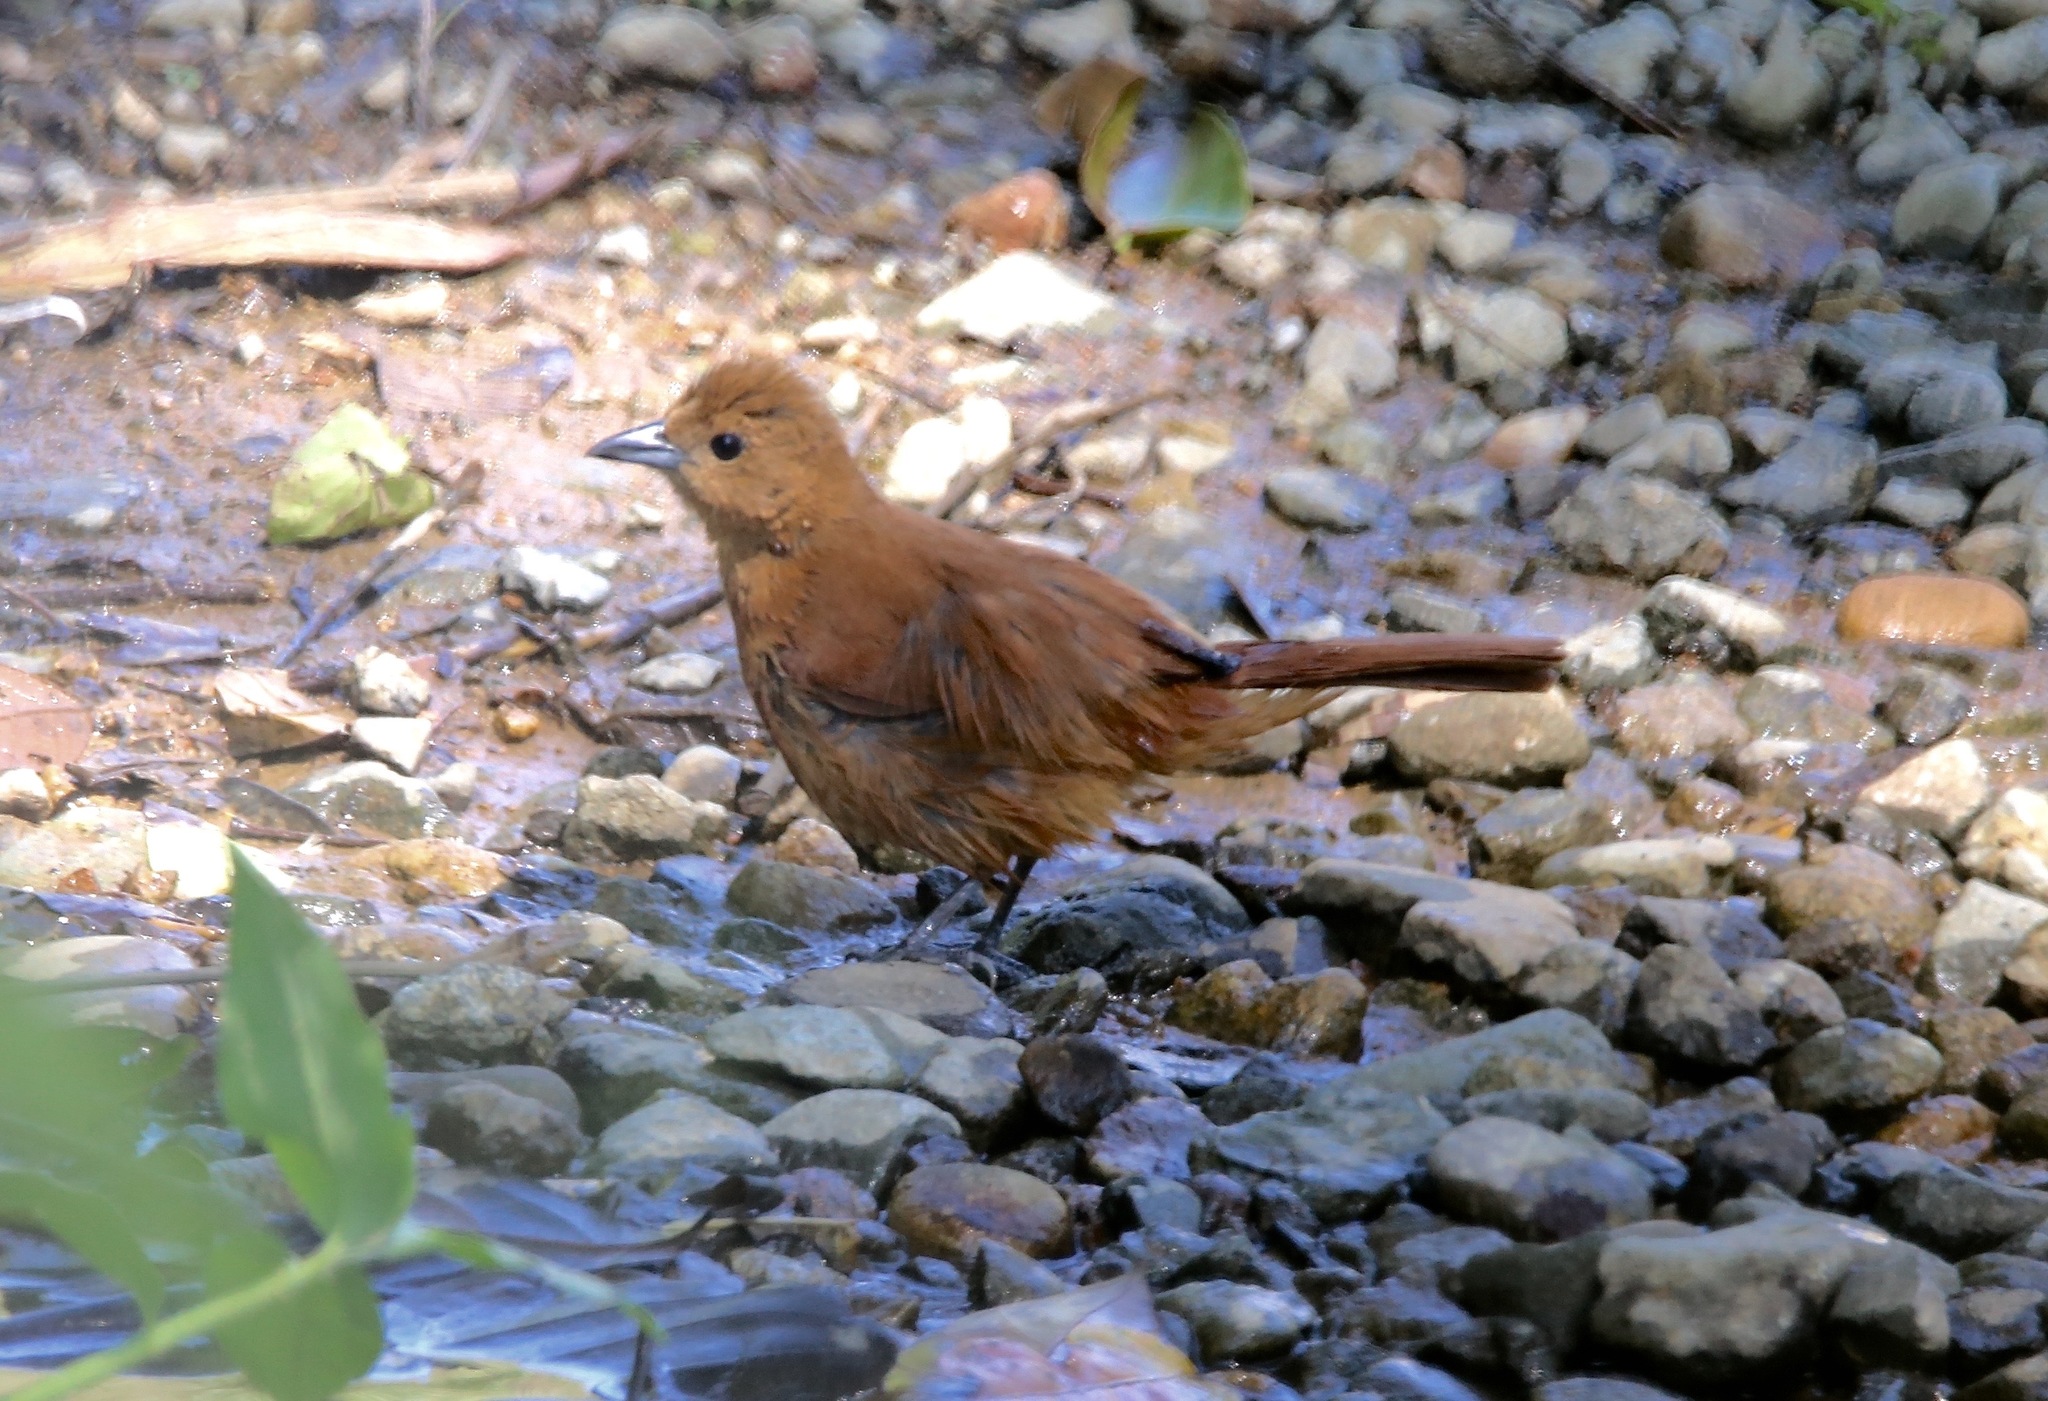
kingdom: Animalia
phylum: Chordata
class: Aves
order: Passeriformes
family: Thraupidae
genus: Tachyphonus
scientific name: Tachyphonus rufus
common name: White-lined tanager
